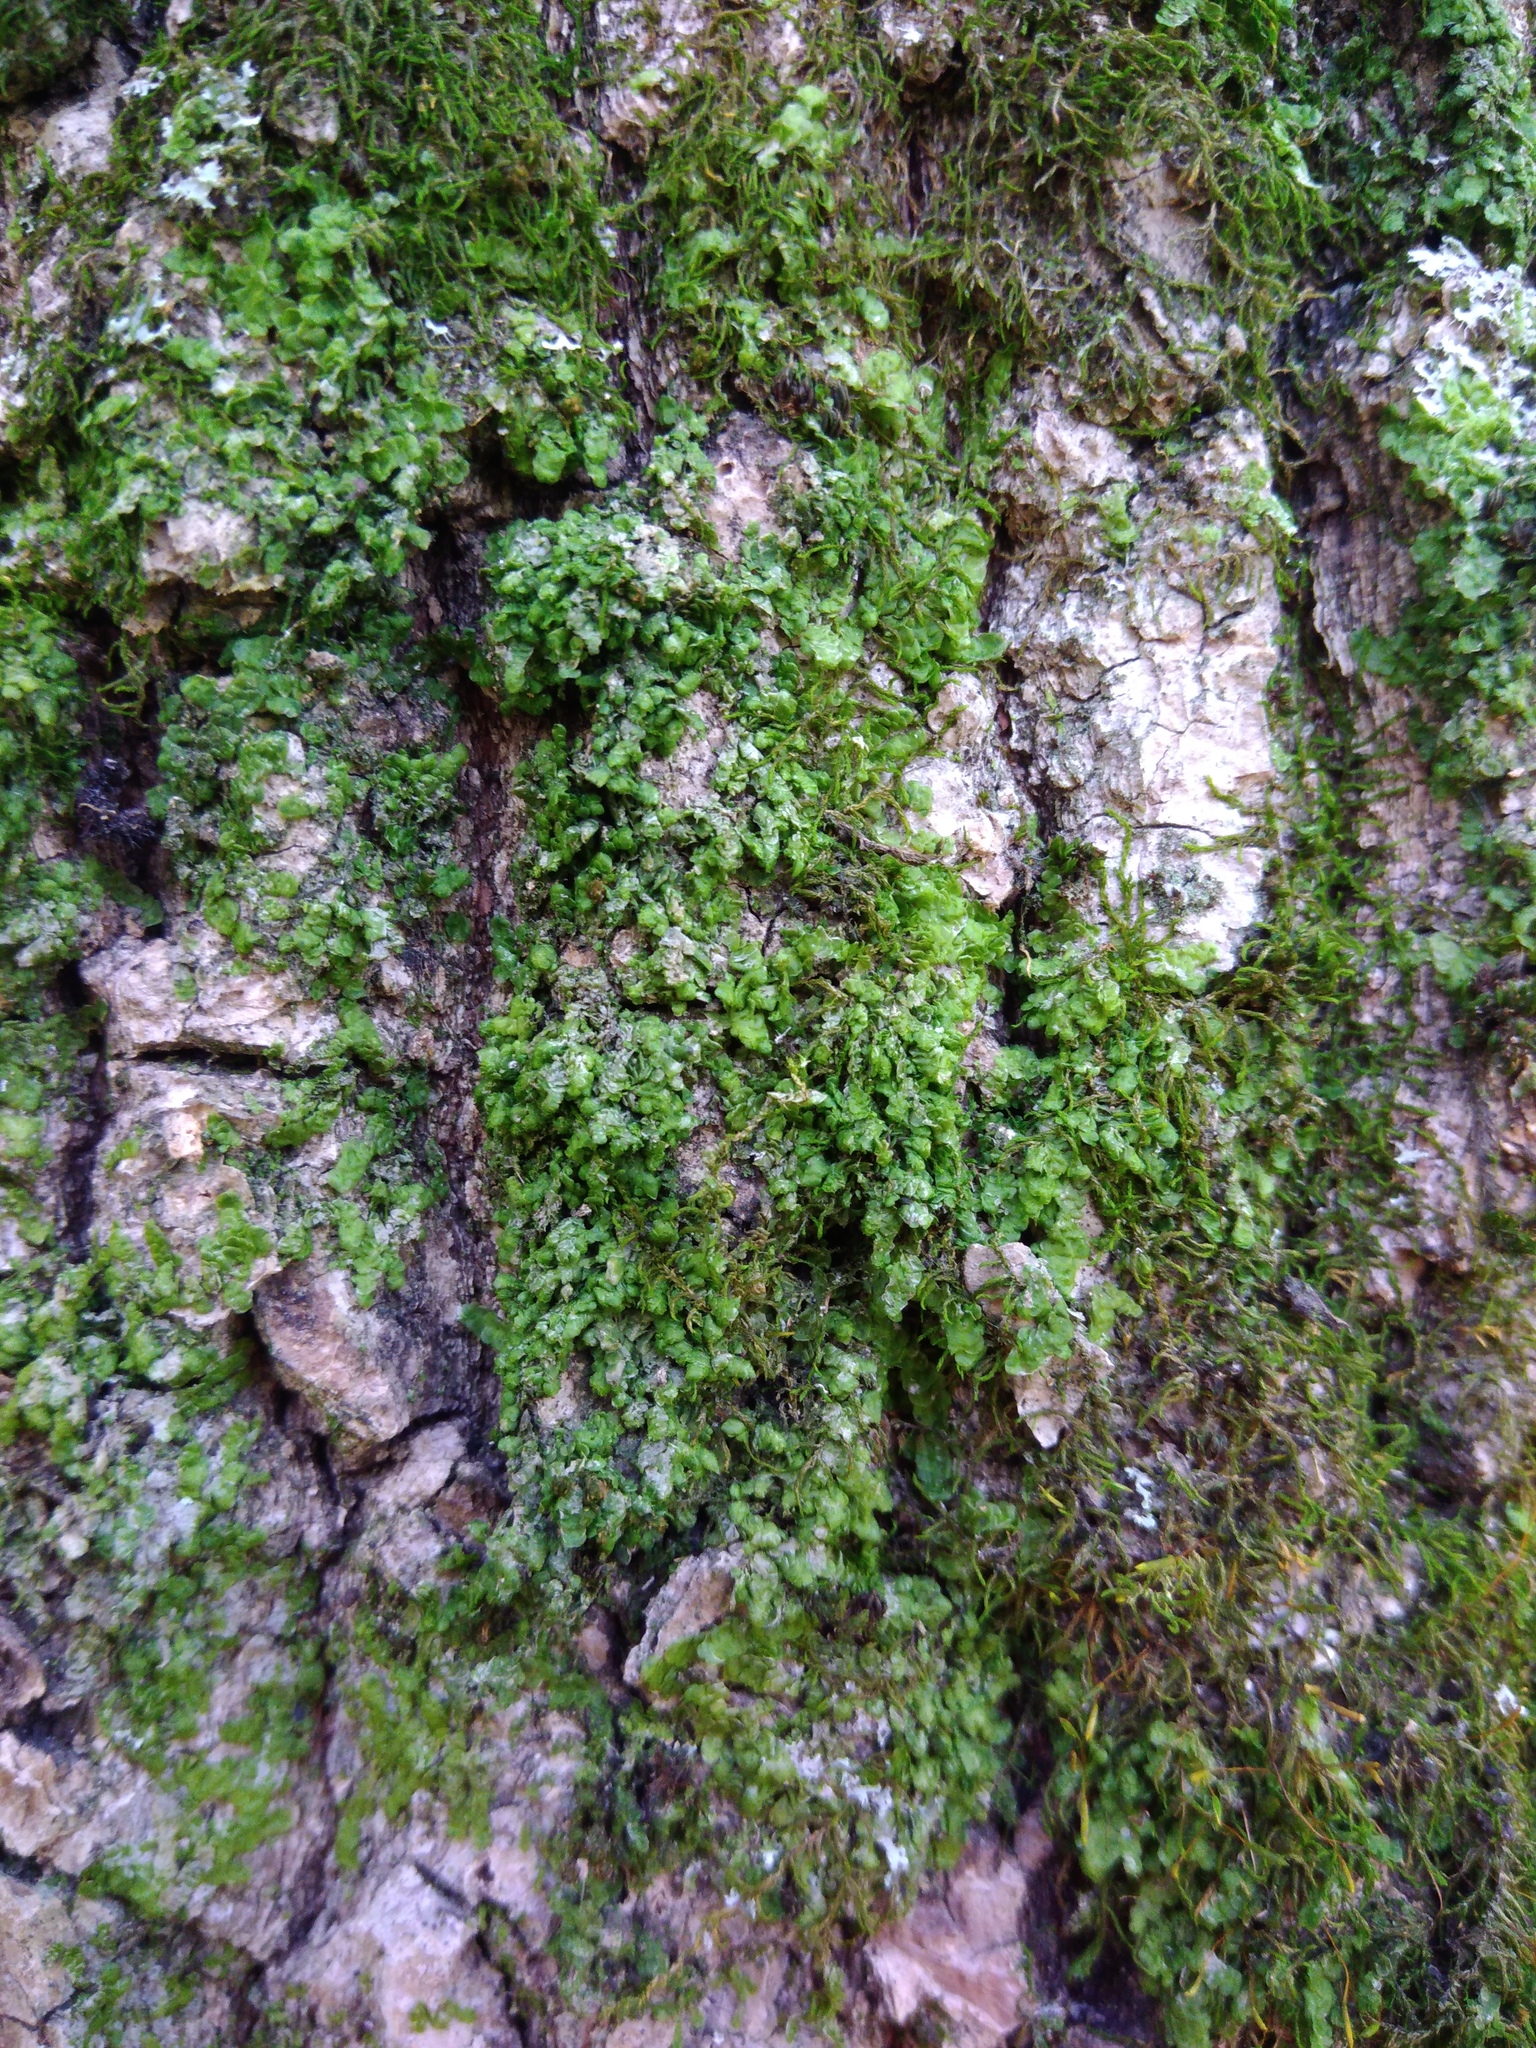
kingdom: Plantae
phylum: Marchantiophyta
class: Jungermanniopsida
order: Porellales
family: Radulaceae
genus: Radula
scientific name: Radula complanata
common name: Flat-leaved scalewort
